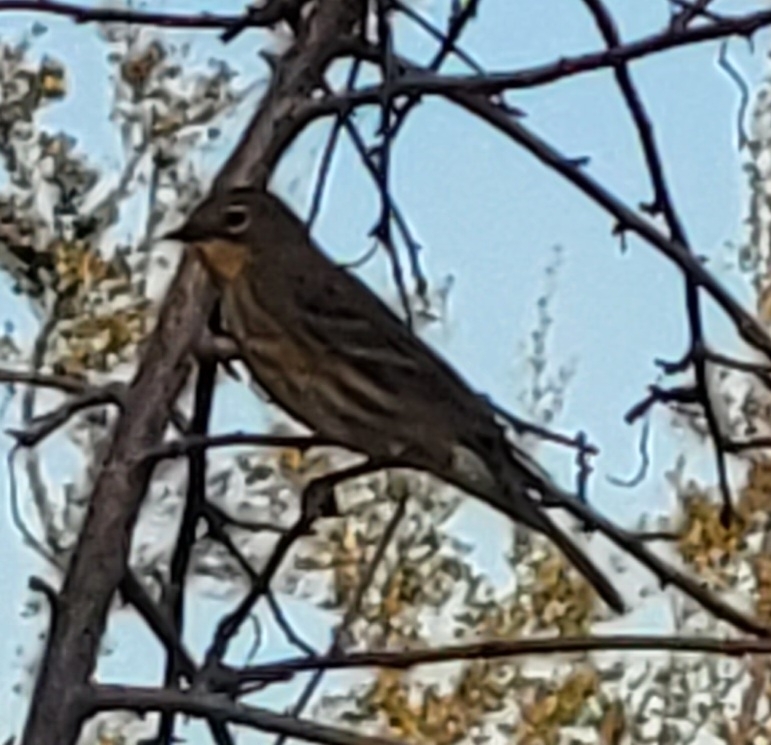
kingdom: Animalia
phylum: Chordata
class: Aves
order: Passeriformes
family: Parulidae
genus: Setophaga
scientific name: Setophaga coronata
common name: Myrtle warbler
